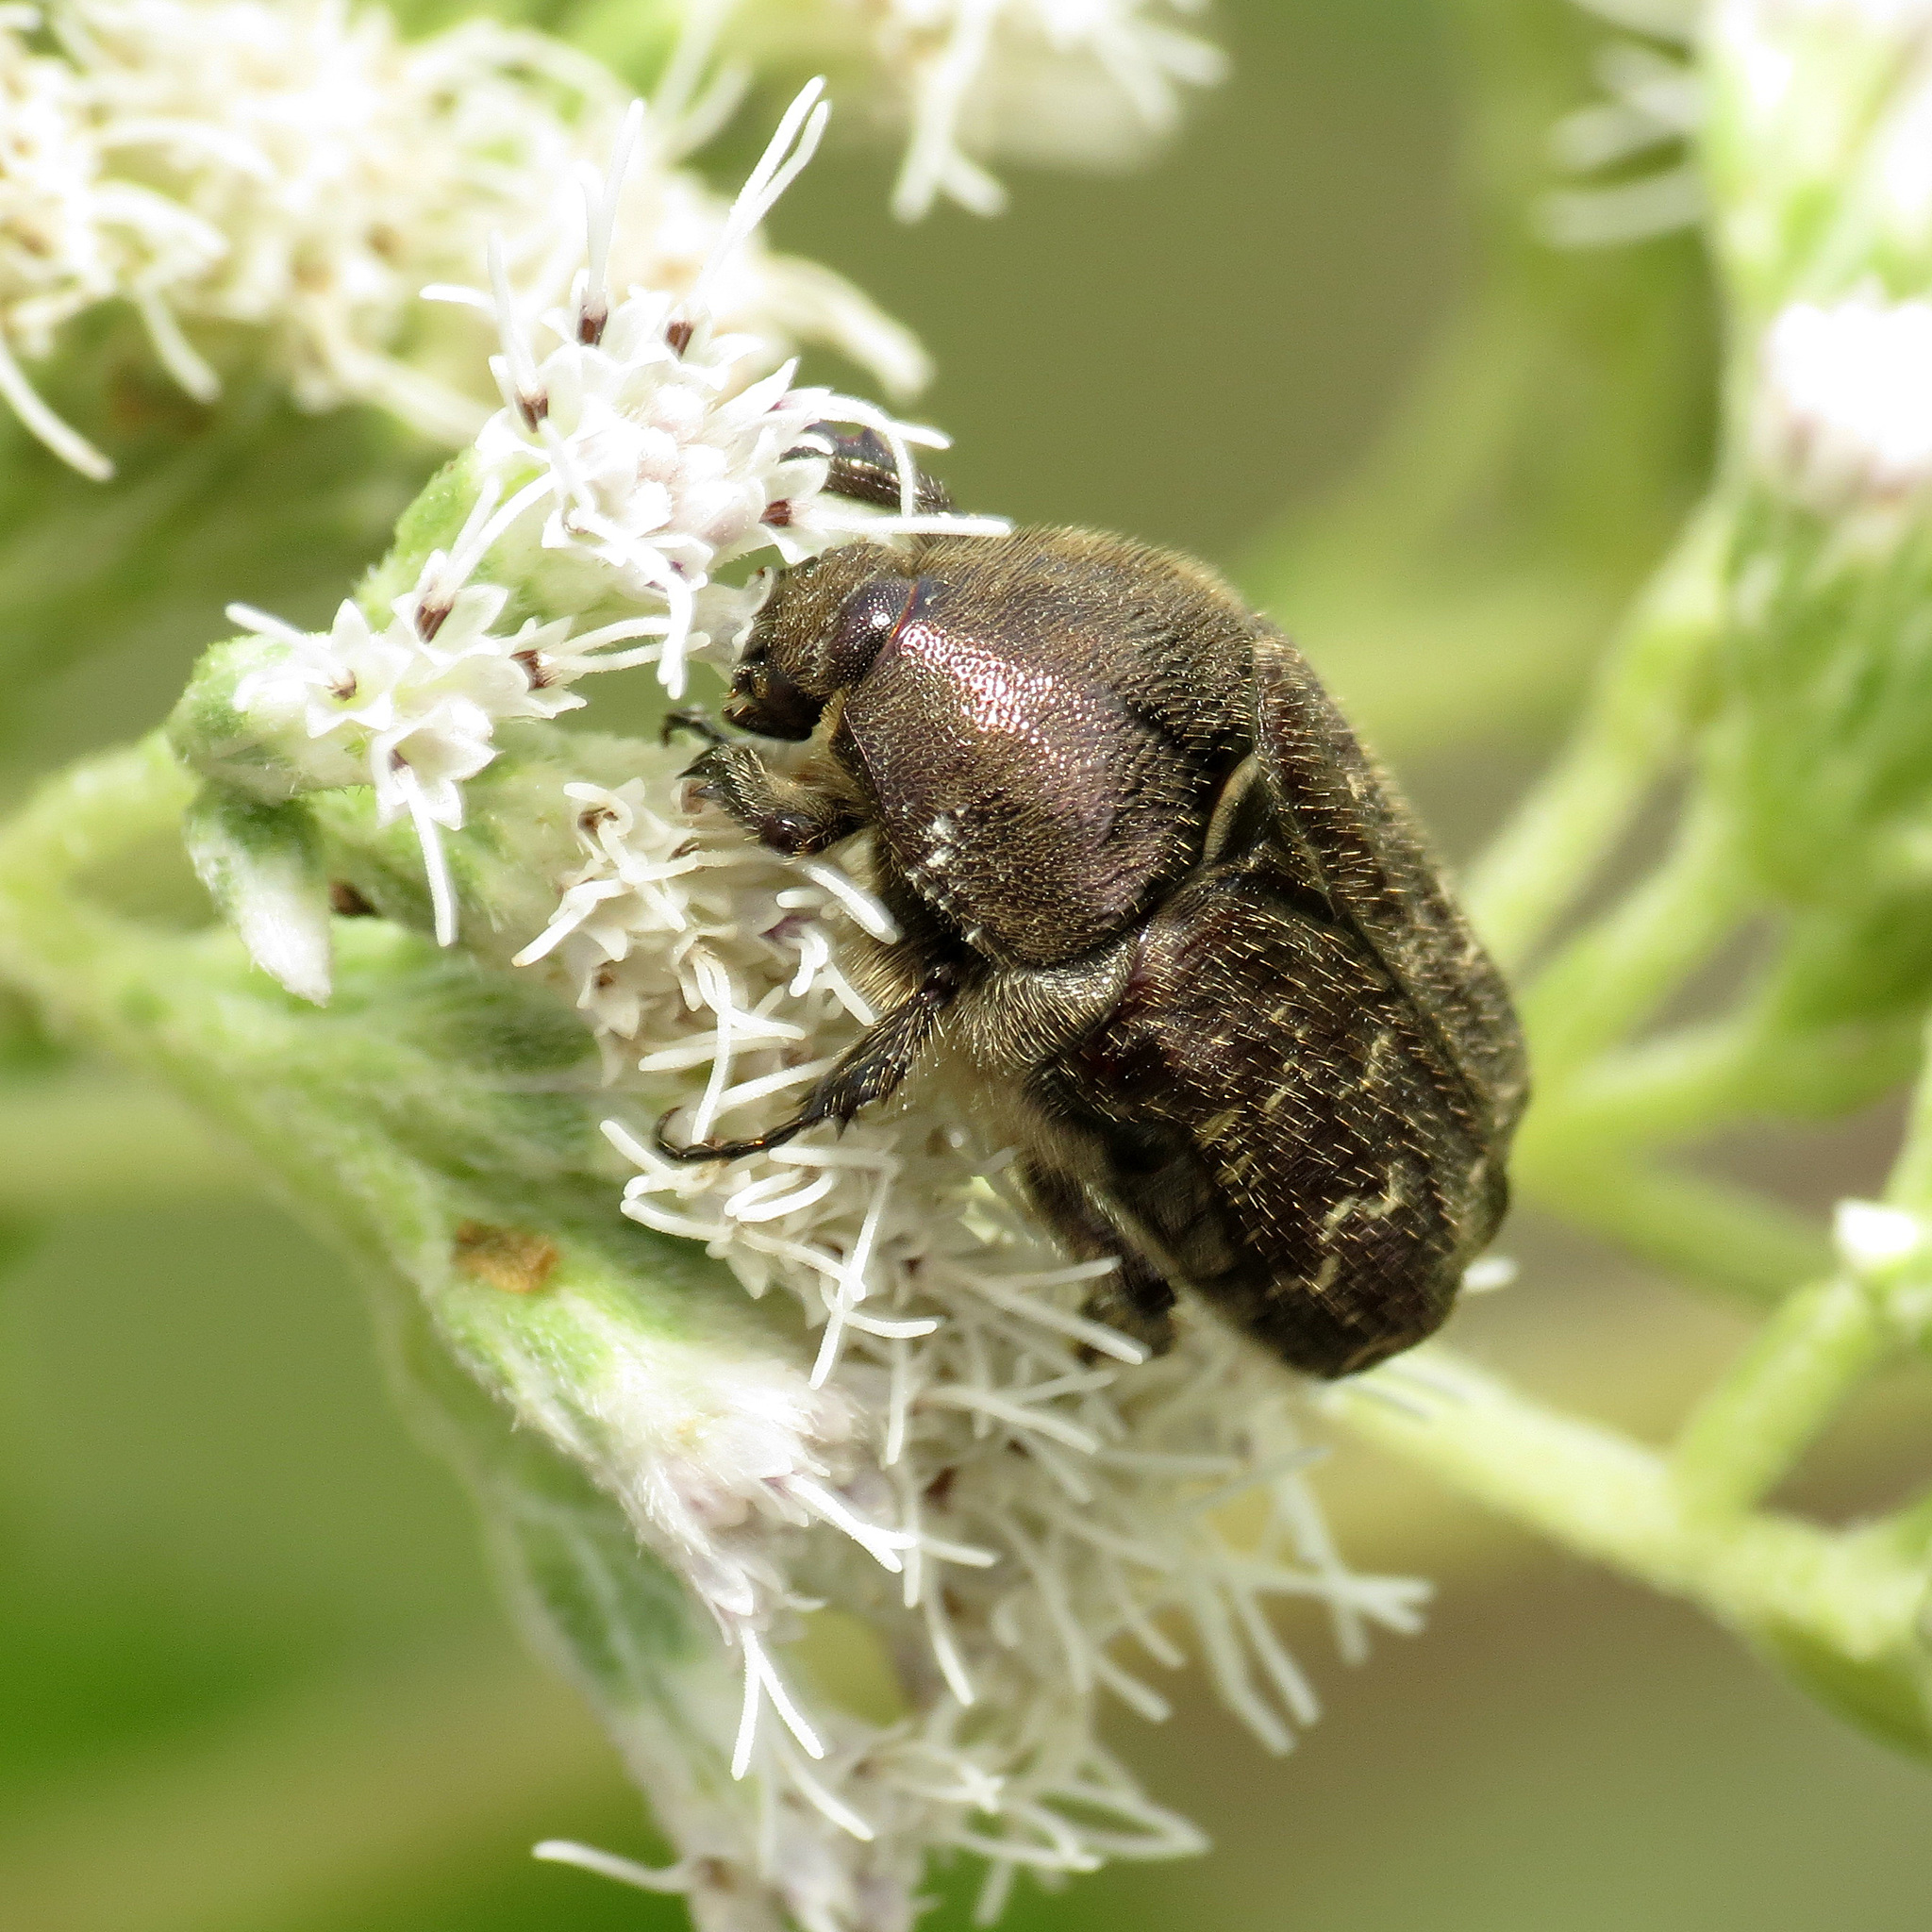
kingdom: Animalia
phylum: Arthropoda
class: Insecta
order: Coleoptera
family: Scarabaeidae
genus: Euphoria
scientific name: Euphoria sepulcralis
